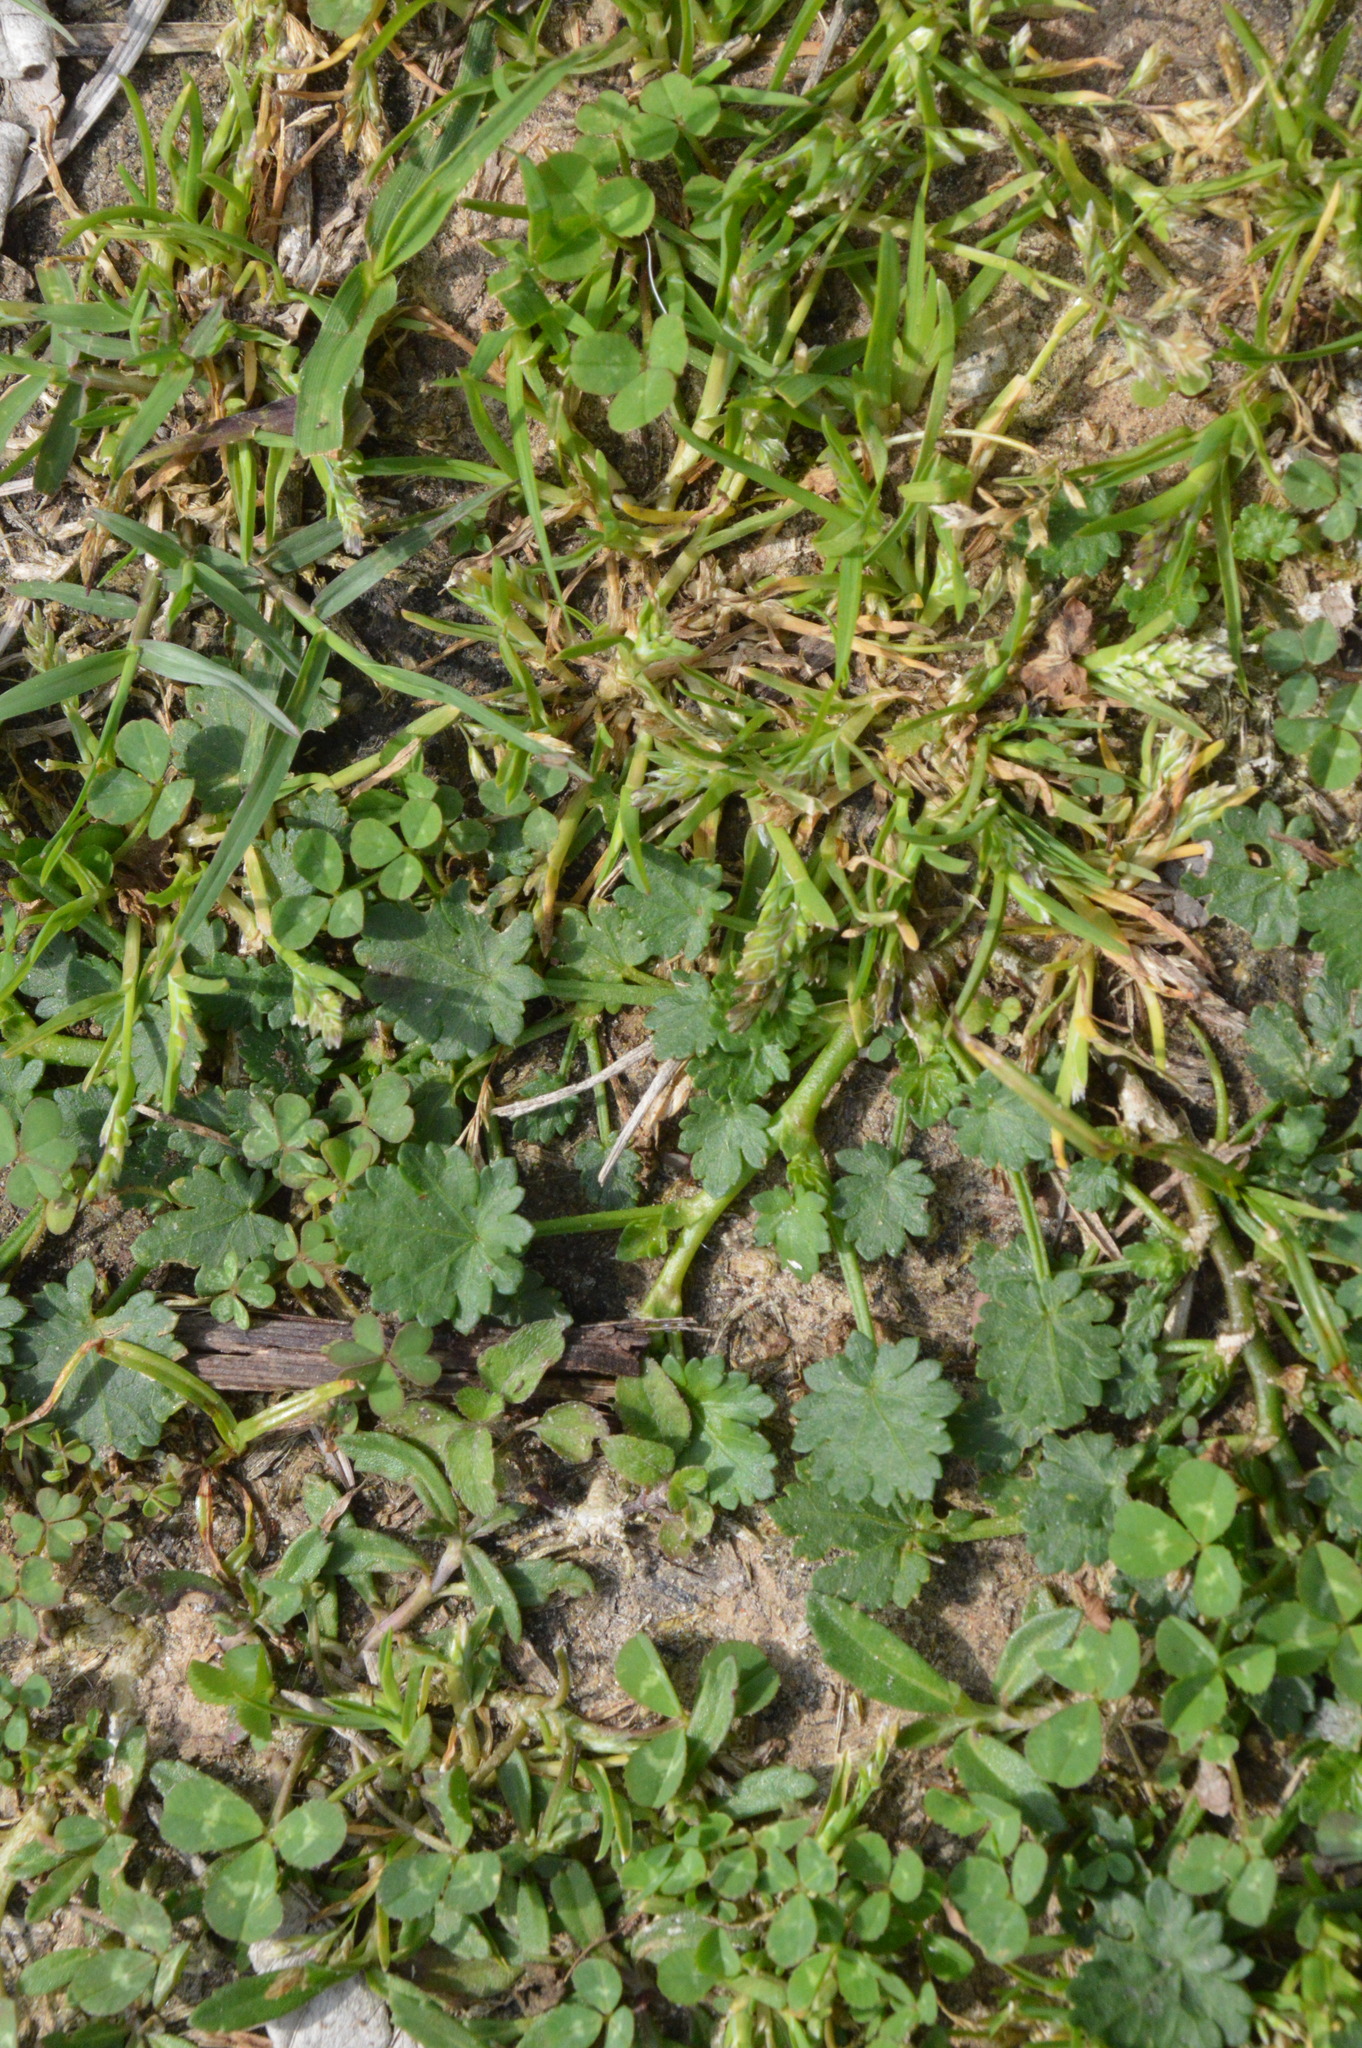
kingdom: Plantae
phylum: Tracheophyta
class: Magnoliopsida
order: Malvales
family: Malvaceae
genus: Modiola
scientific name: Modiola caroliniana
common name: Carolina bristlemallow
